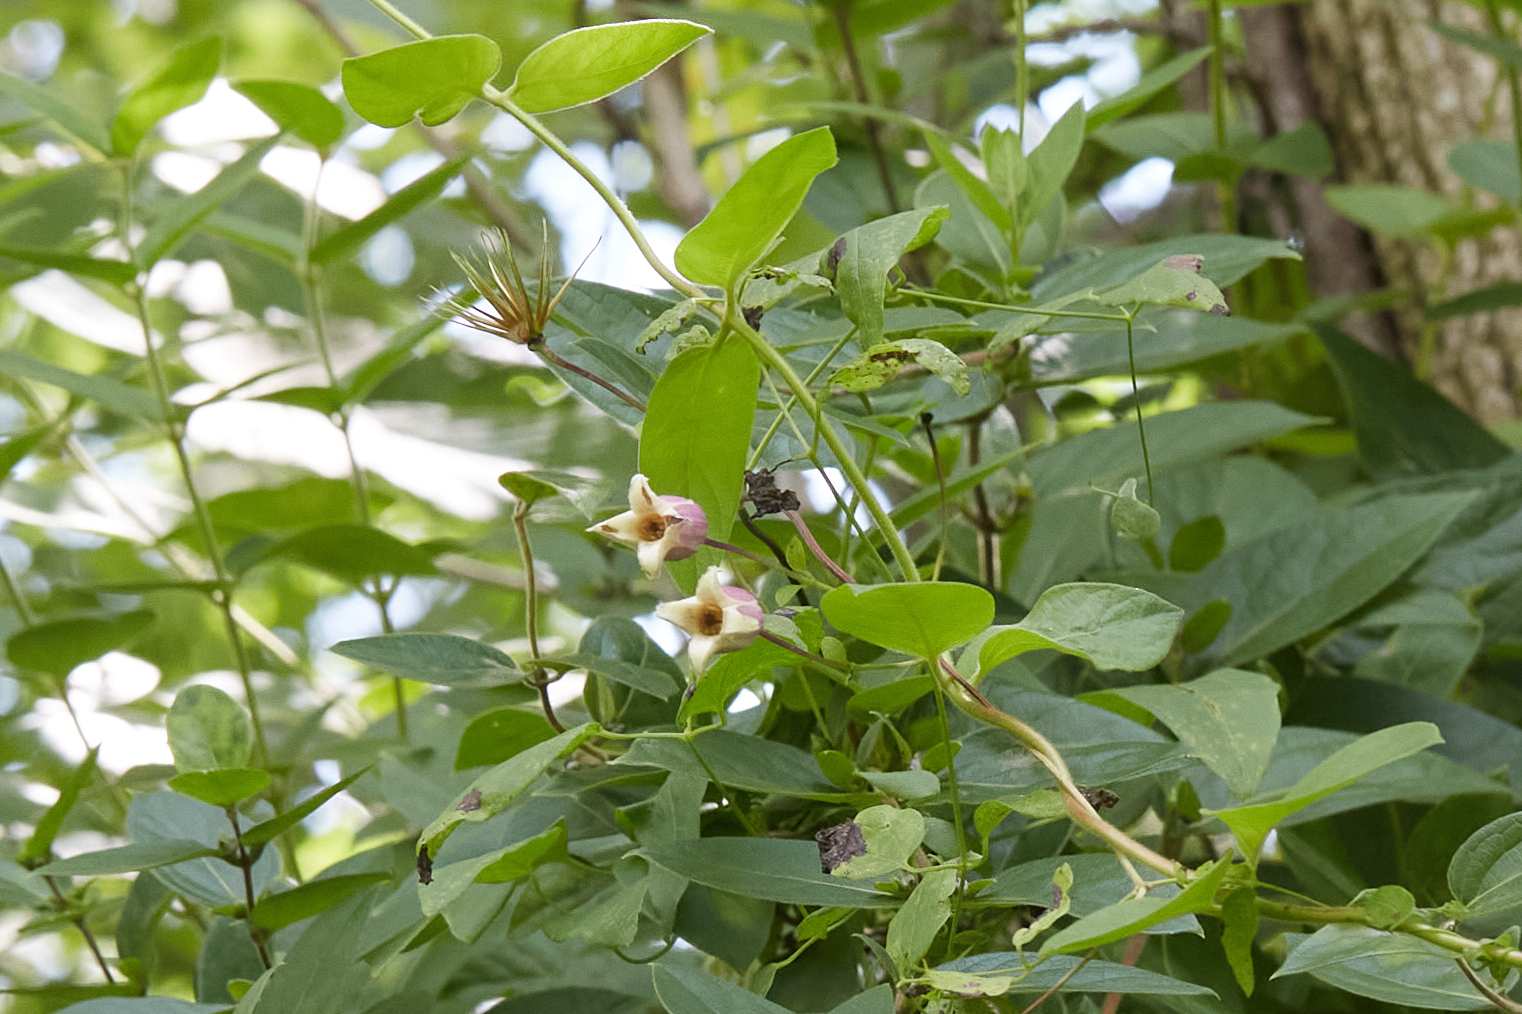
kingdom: Plantae
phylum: Tracheophyta
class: Magnoliopsida
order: Ranunculales
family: Ranunculaceae
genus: Clematis
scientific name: Clematis viorna
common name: Leather-flower
